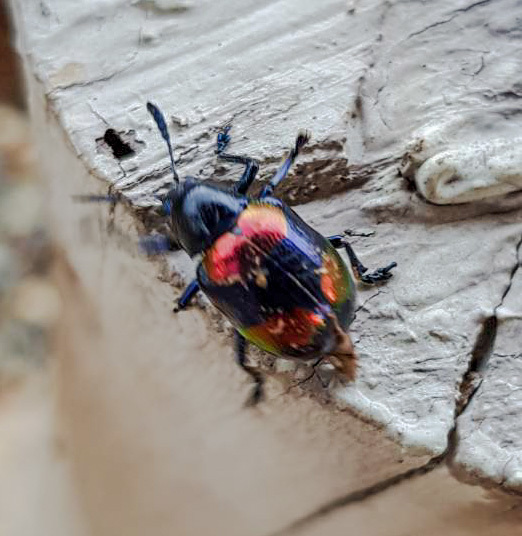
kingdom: Animalia
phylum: Arthropoda
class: Insecta
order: Coleoptera
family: Chrysomelidae
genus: Platycorynus
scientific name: Platycorynus undatus
